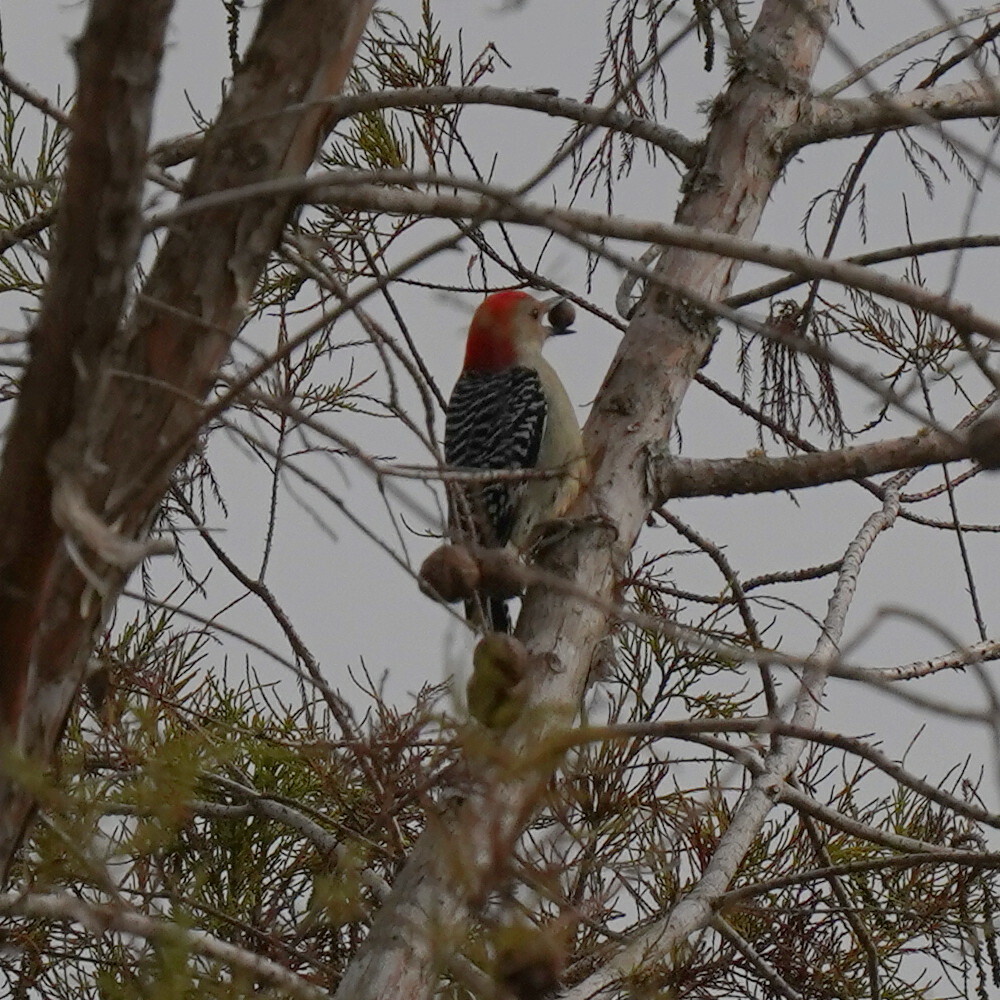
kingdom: Animalia
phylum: Chordata
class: Aves
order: Piciformes
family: Picidae
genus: Melanerpes
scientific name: Melanerpes carolinus
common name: Red-bellied woodpecker
